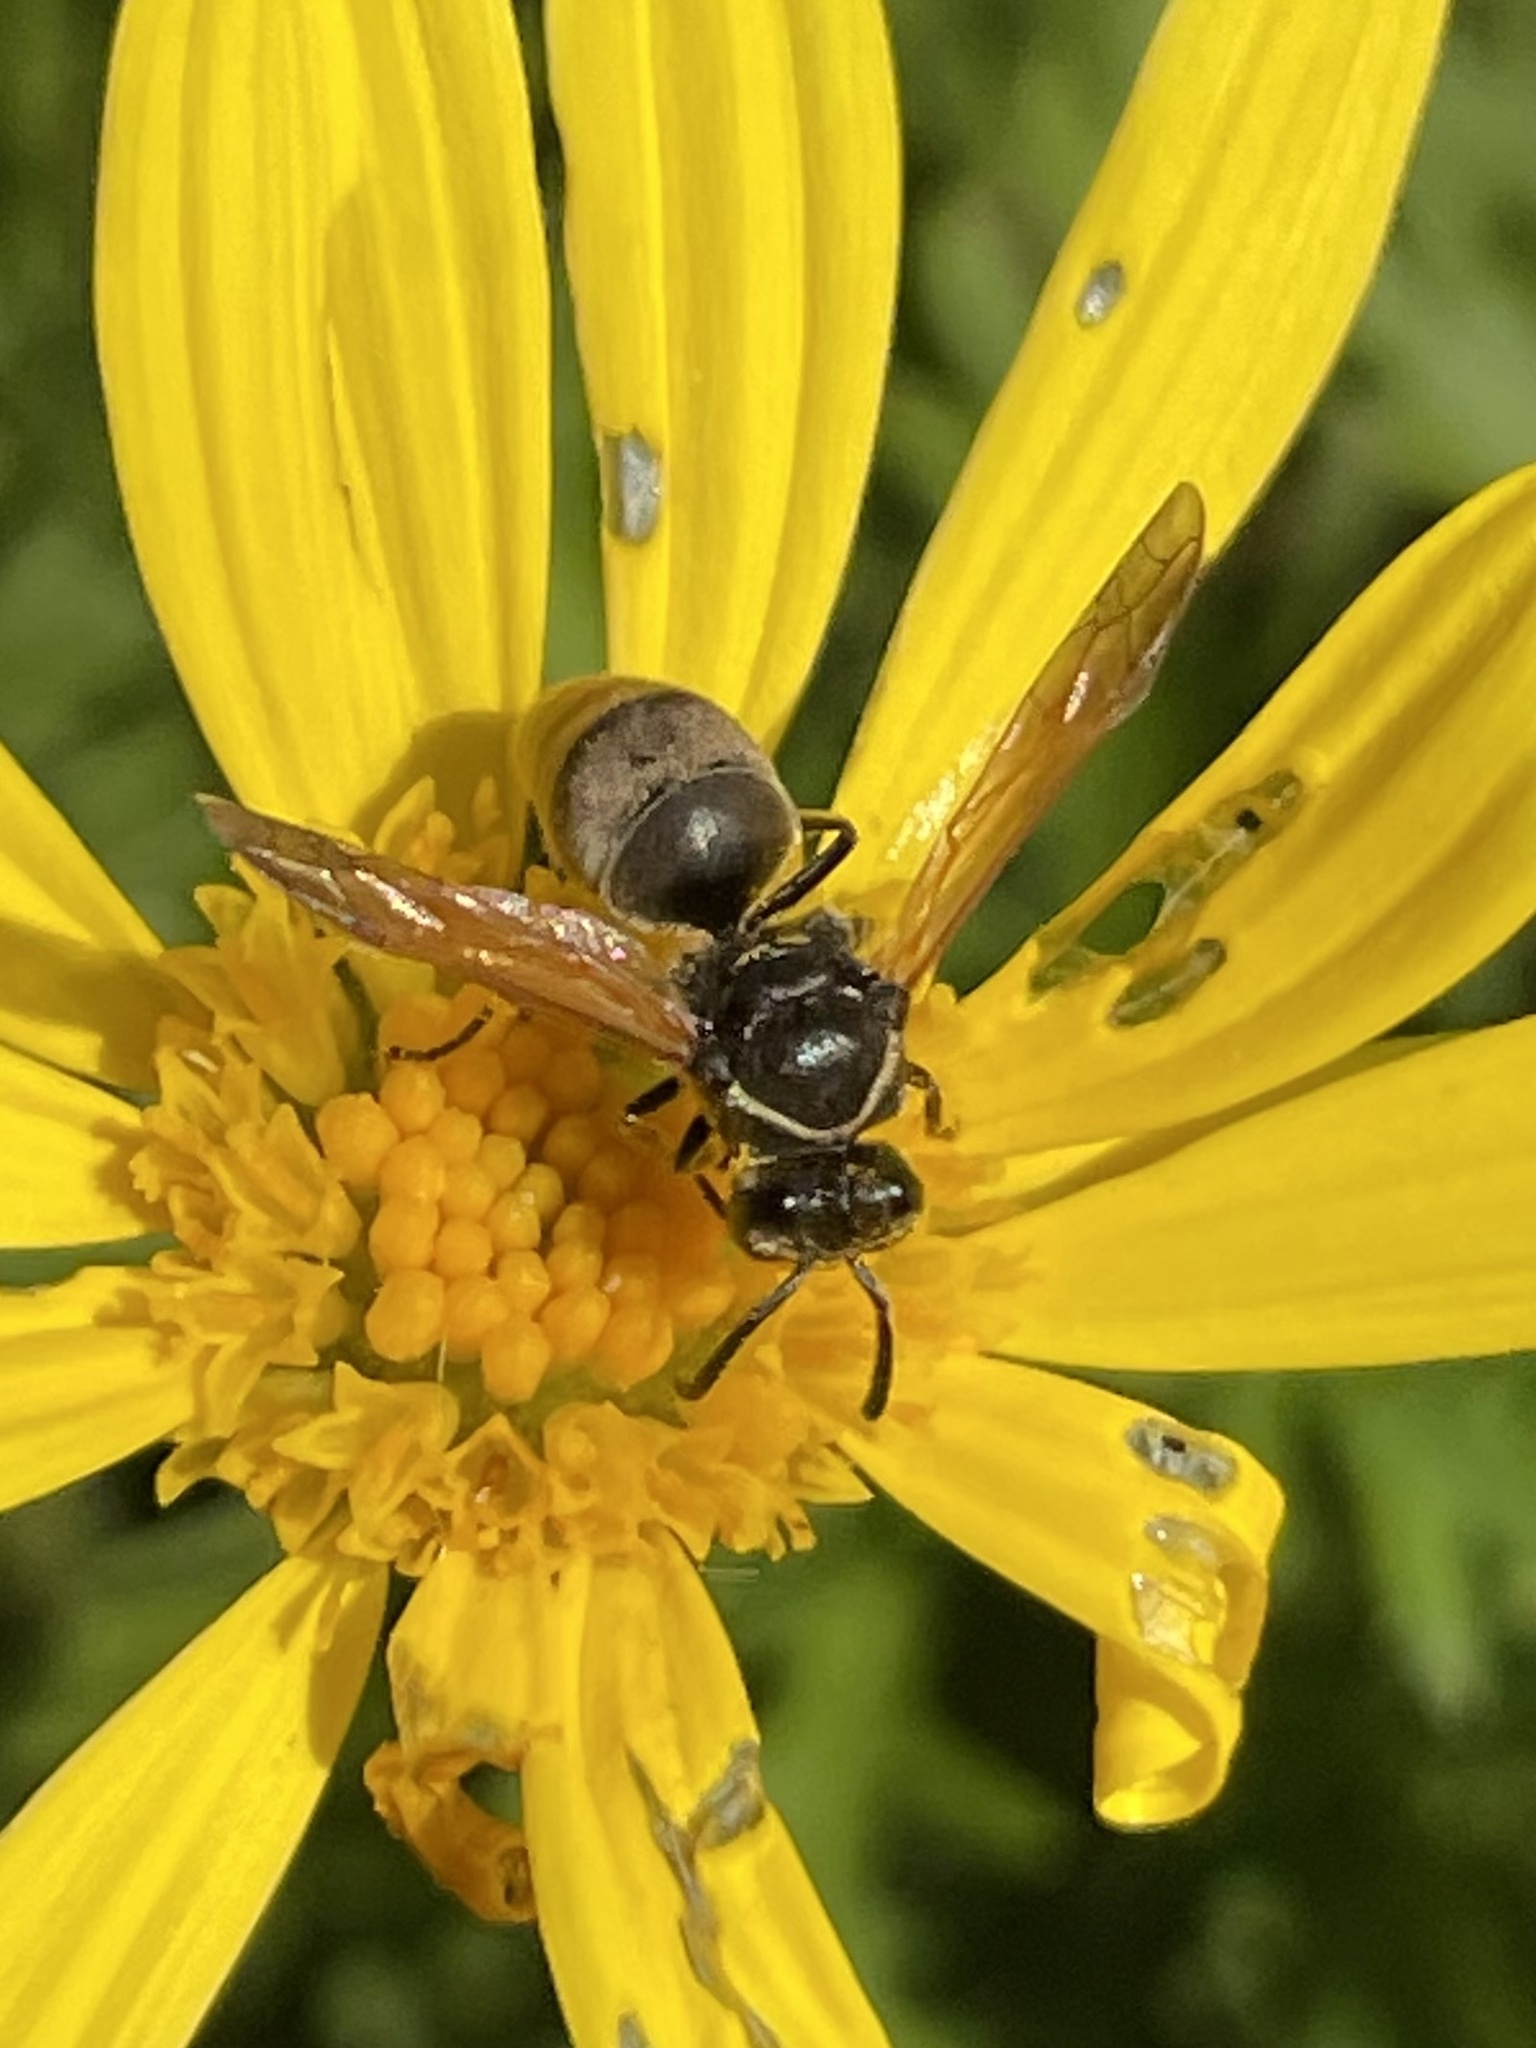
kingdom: Animalia
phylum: Arthropoda
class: Insecta
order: Hymenoptera
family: Eumenidae
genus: Pachodynerus
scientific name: Pachodynerus
